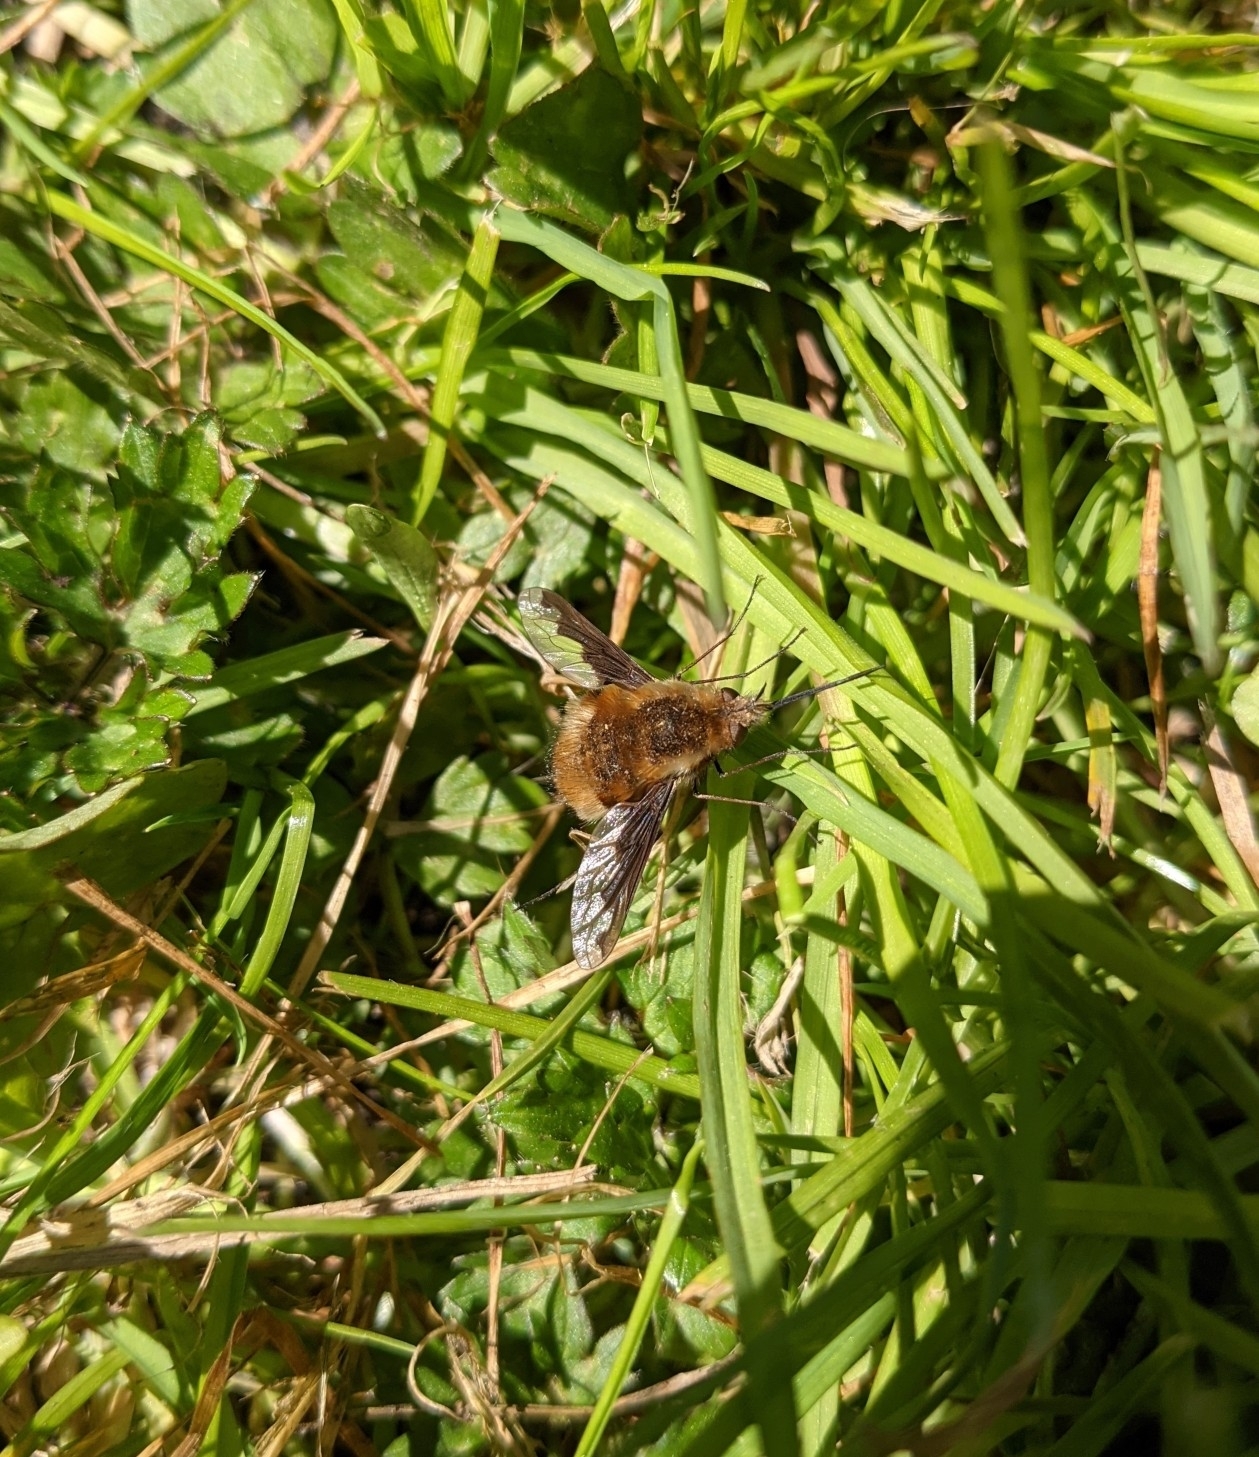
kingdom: Animalia
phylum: Arthropoda
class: Insecta
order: Diptera
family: Bombyliidae
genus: Bombylius
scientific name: Bombylius major
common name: Bee fly
